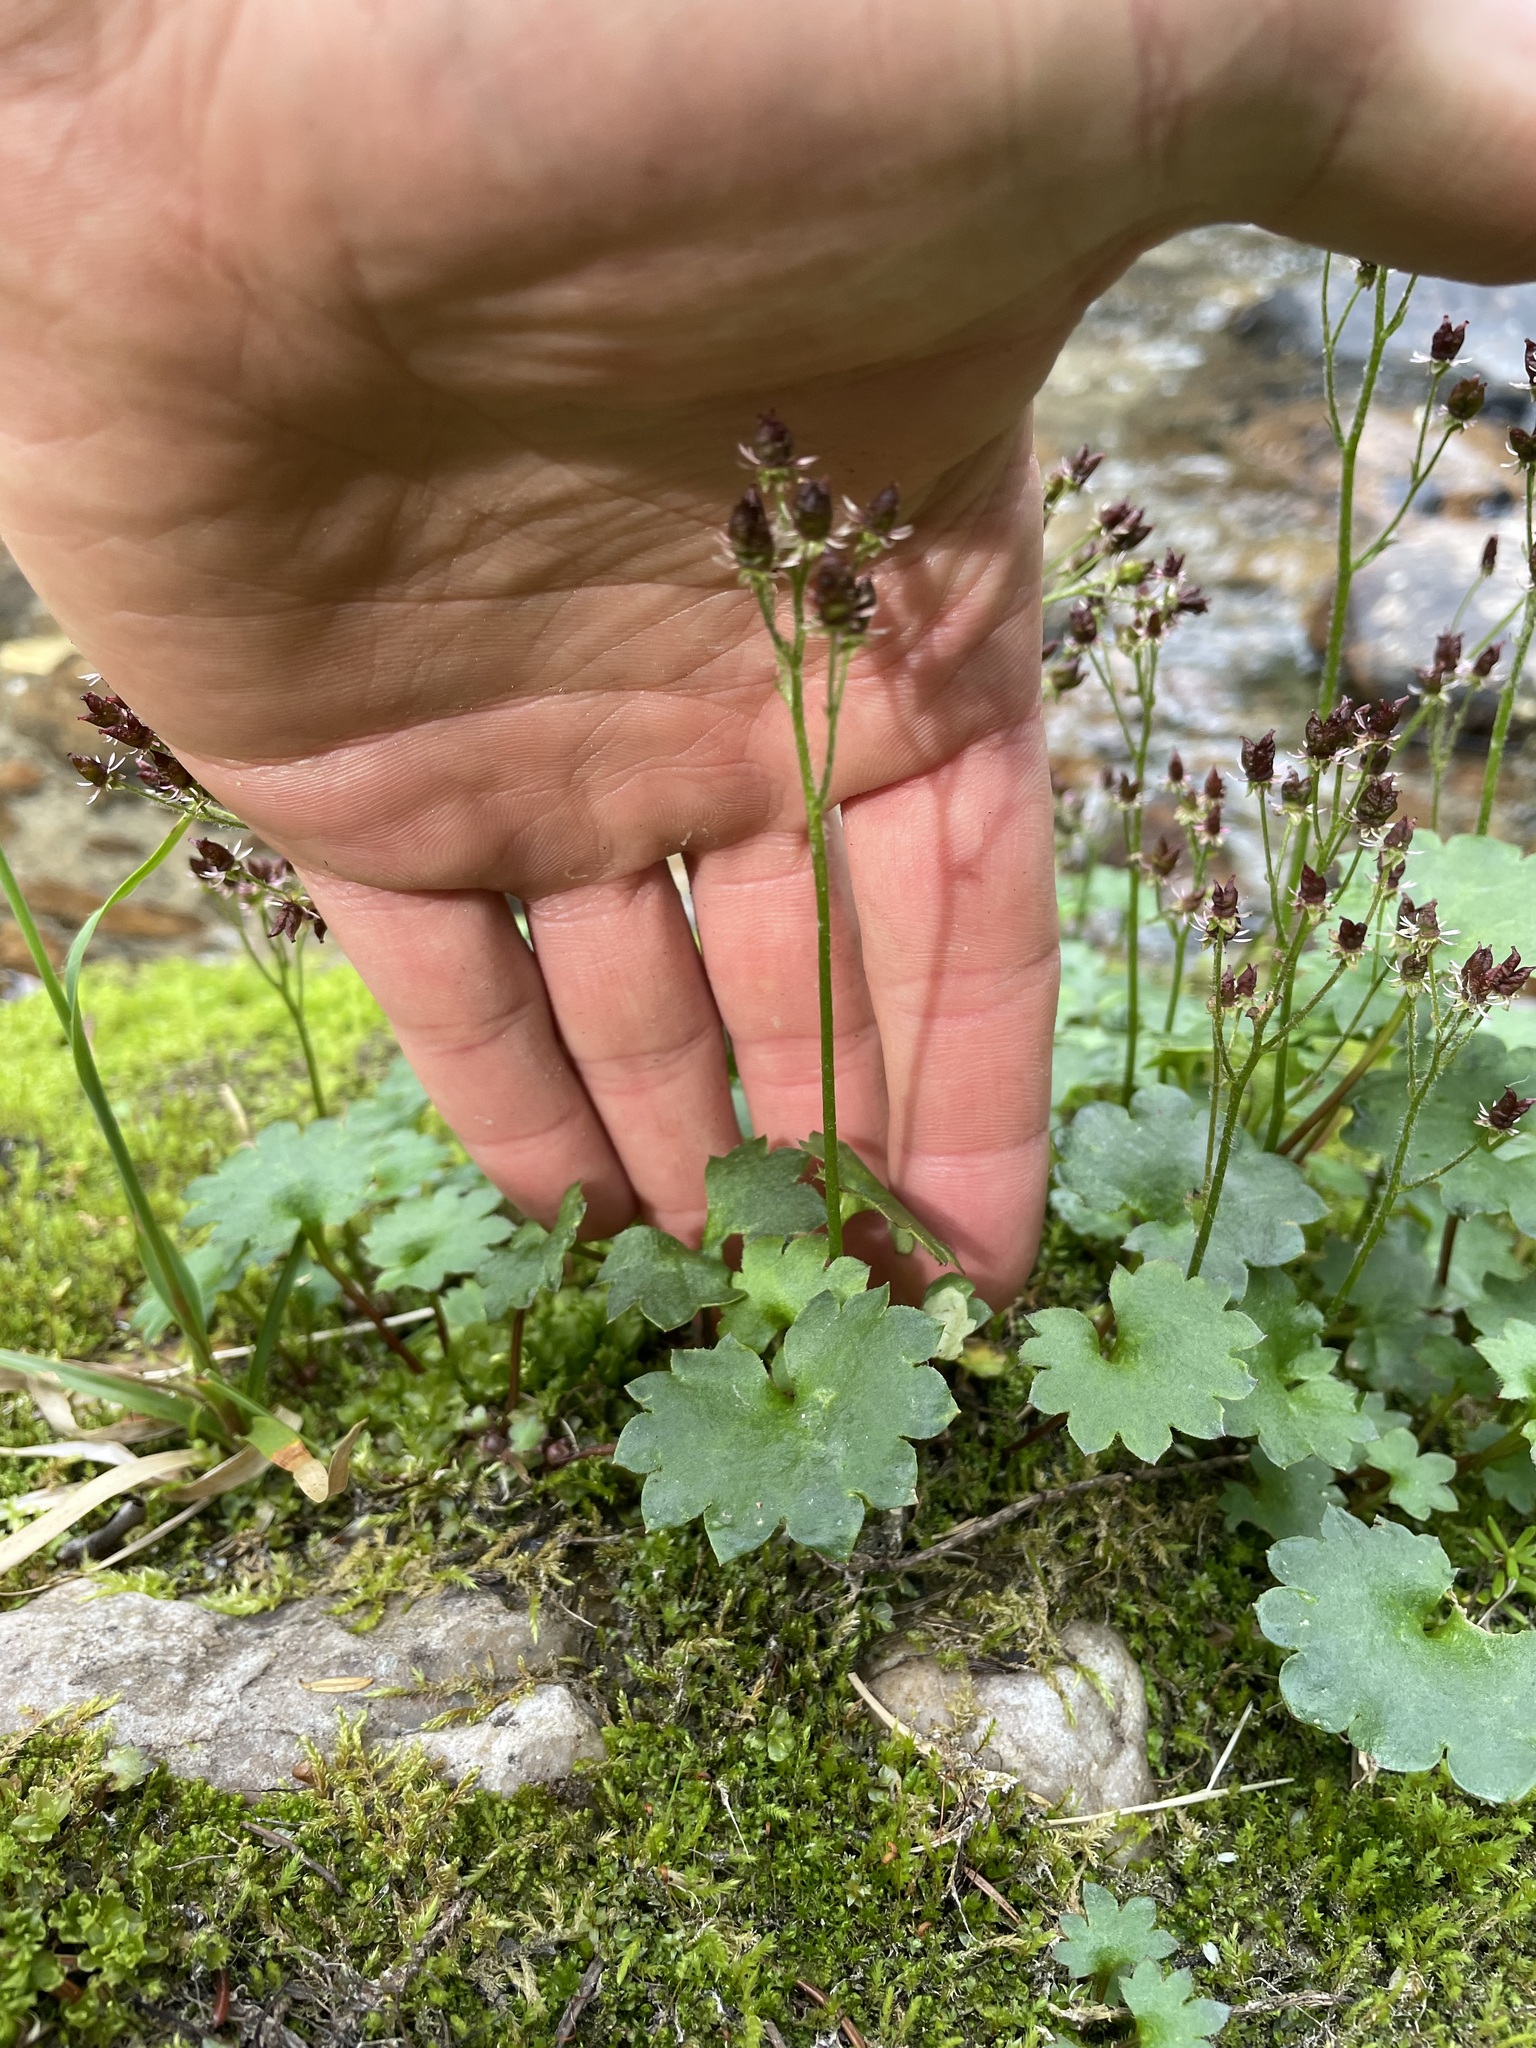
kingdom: Plantae
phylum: Tracheophyta
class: Magnoliopsida
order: Saxifragales
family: Saxifragaceae
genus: Micranthes
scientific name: Micranthes nelsoniana
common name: Nelson's saxifrage
